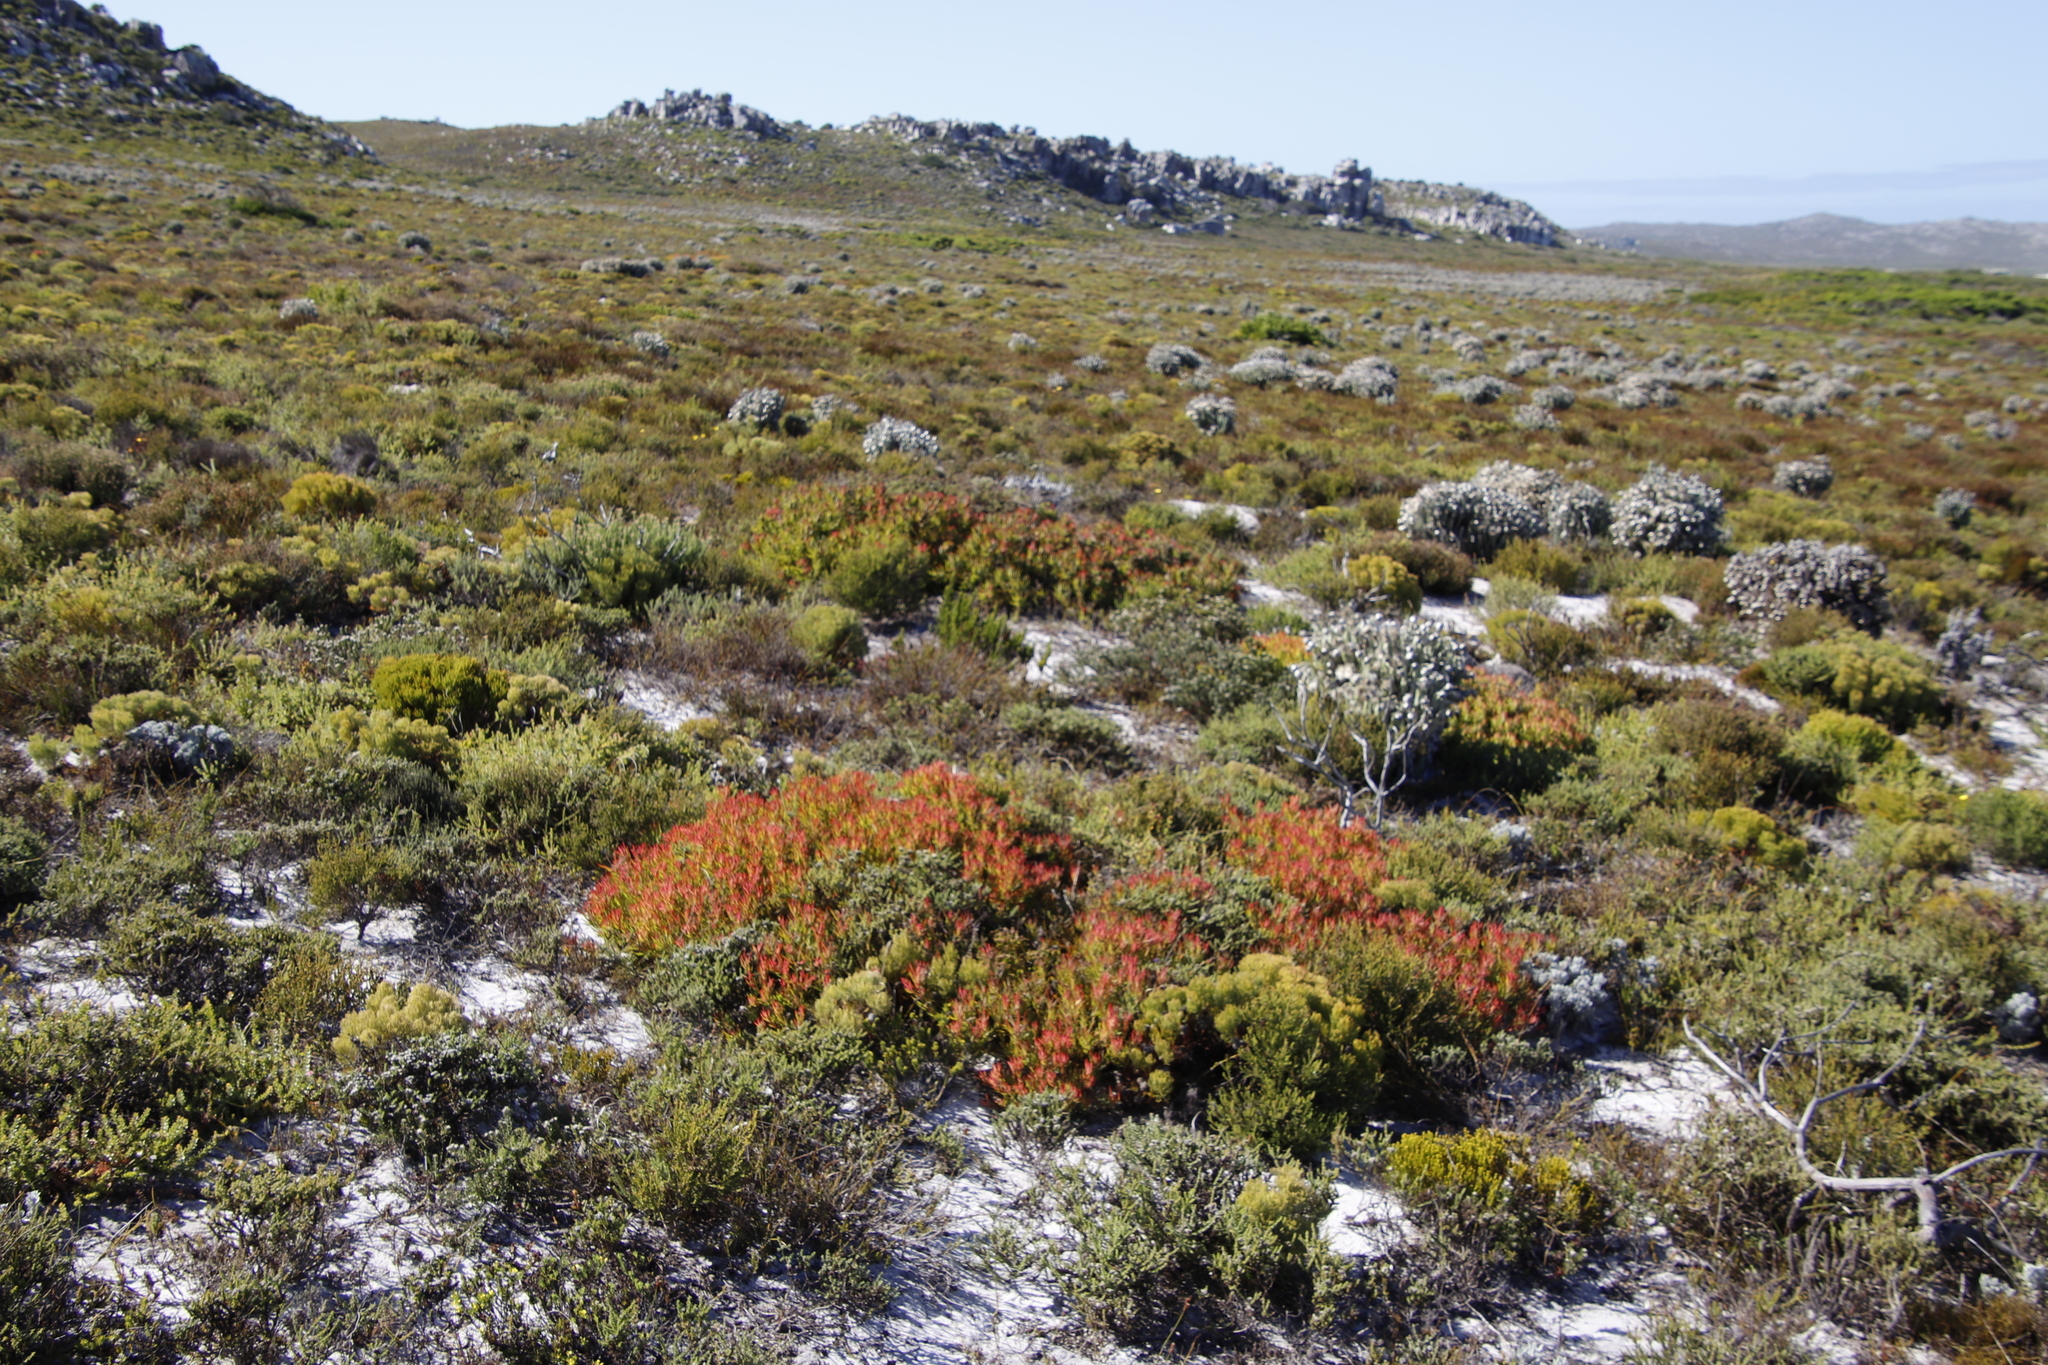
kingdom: Plantae
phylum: Tracheophyta
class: Magnoliopsida
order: Proteales
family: Proteaceae
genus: Leucadendron
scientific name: Leucadendron salignum
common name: Common sunshine conebush
